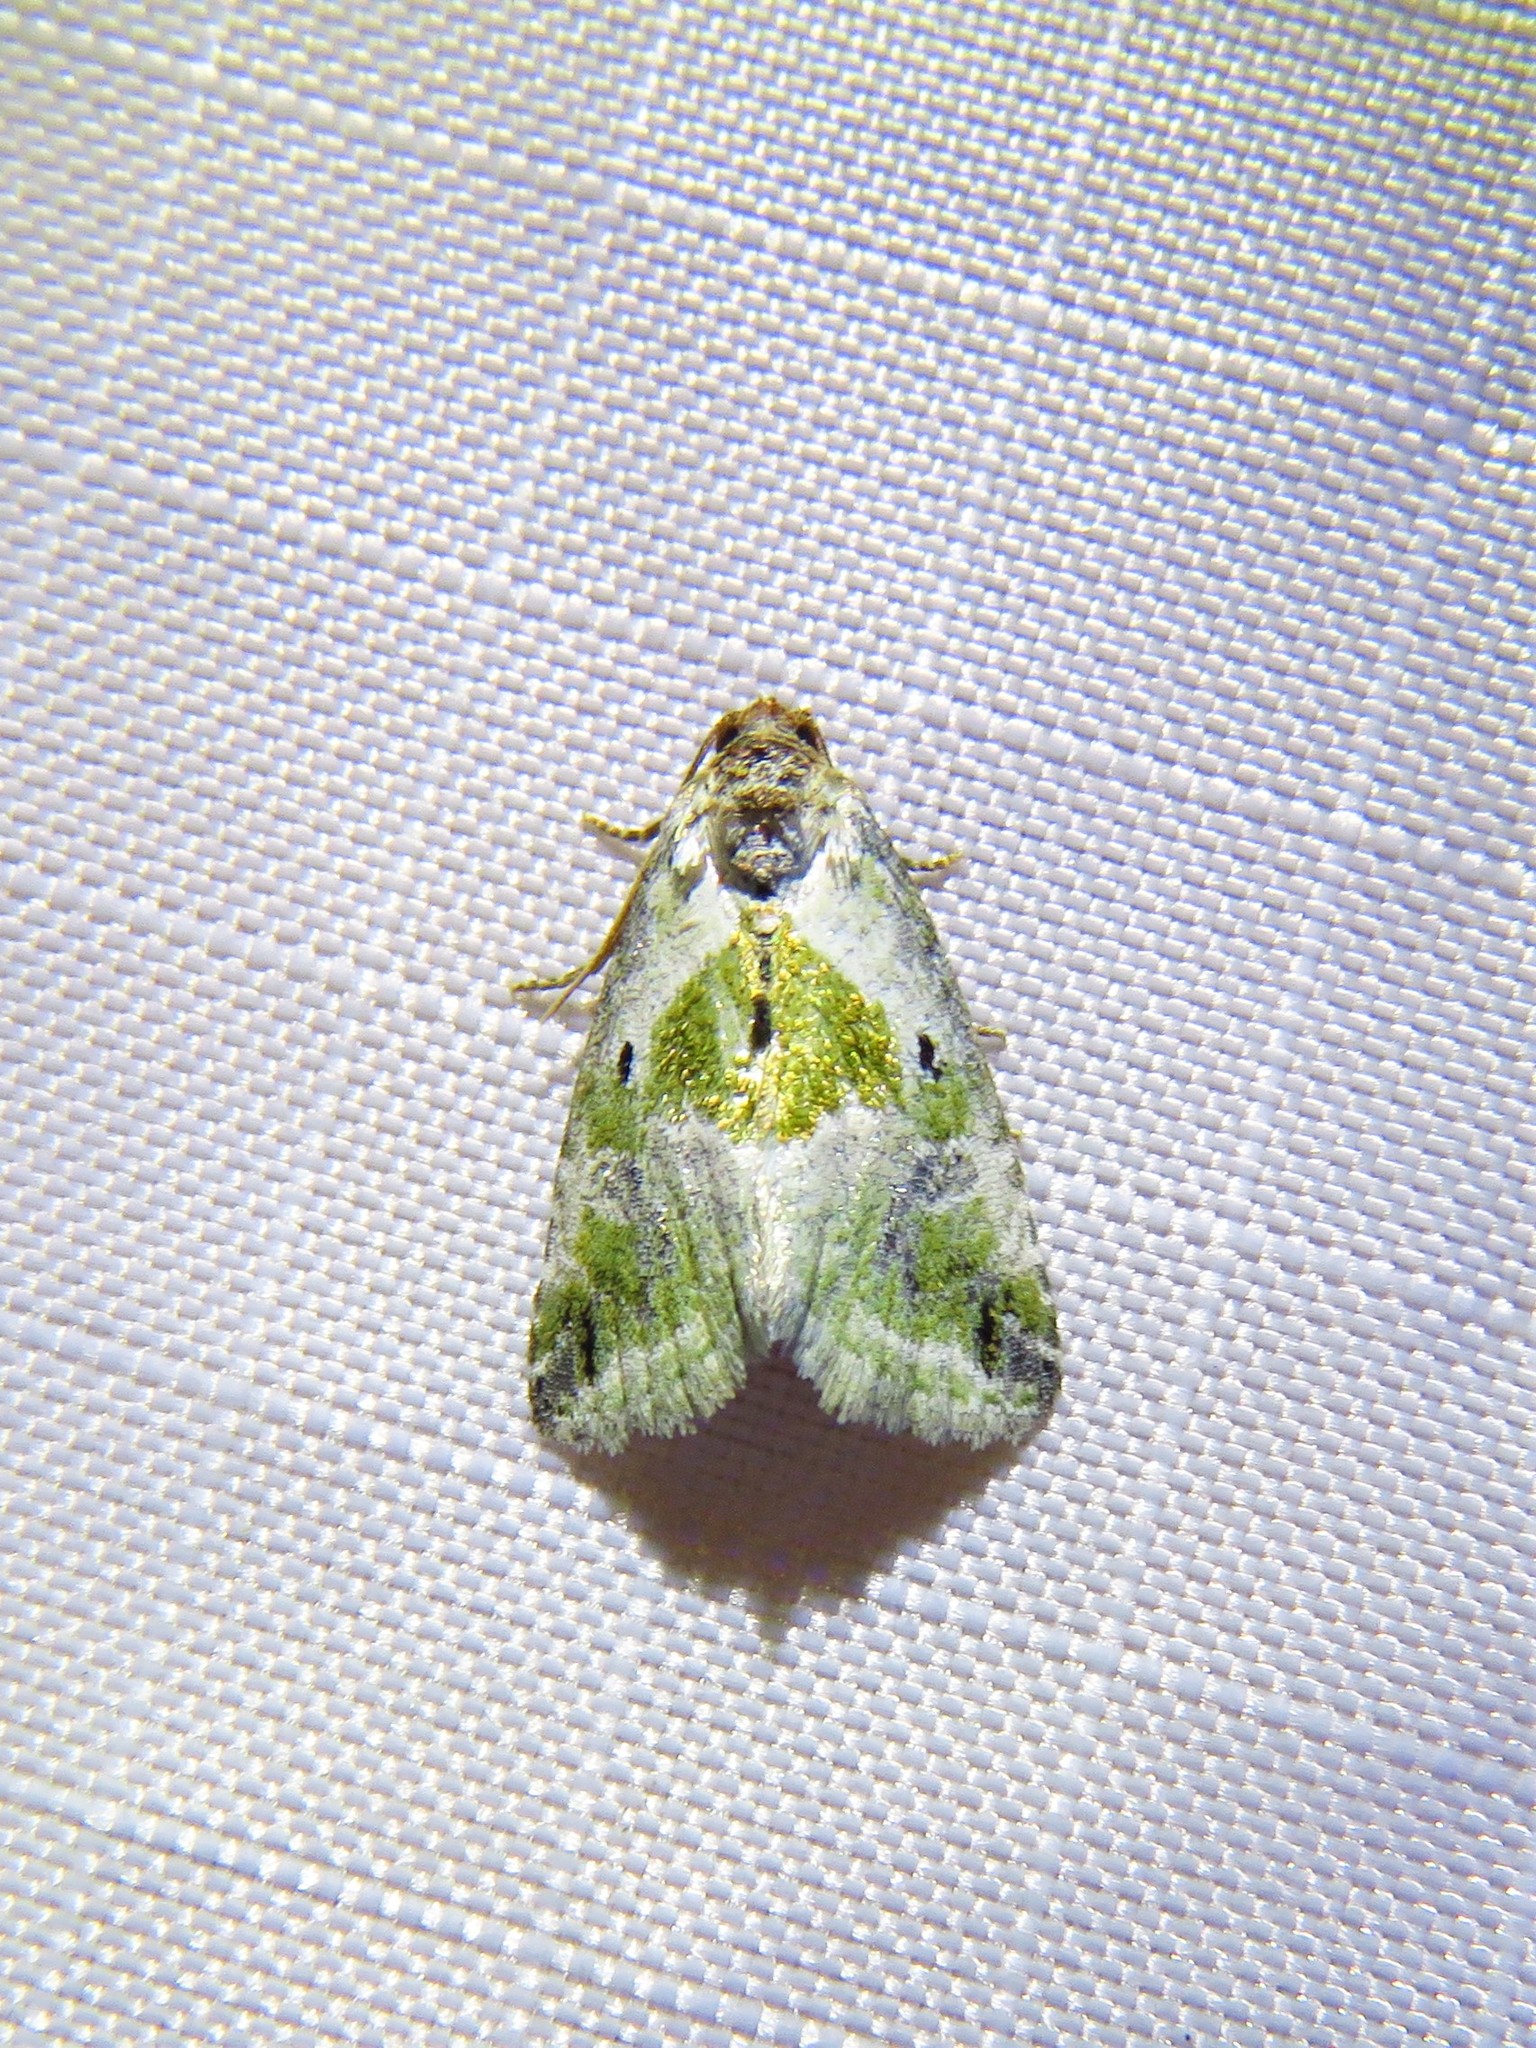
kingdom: Animalia
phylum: Arthropoda
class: Insecta
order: Lepidoptera
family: Noctuidae
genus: Maliattha
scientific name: Maliattha synochitis
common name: Black-dotted glyph
